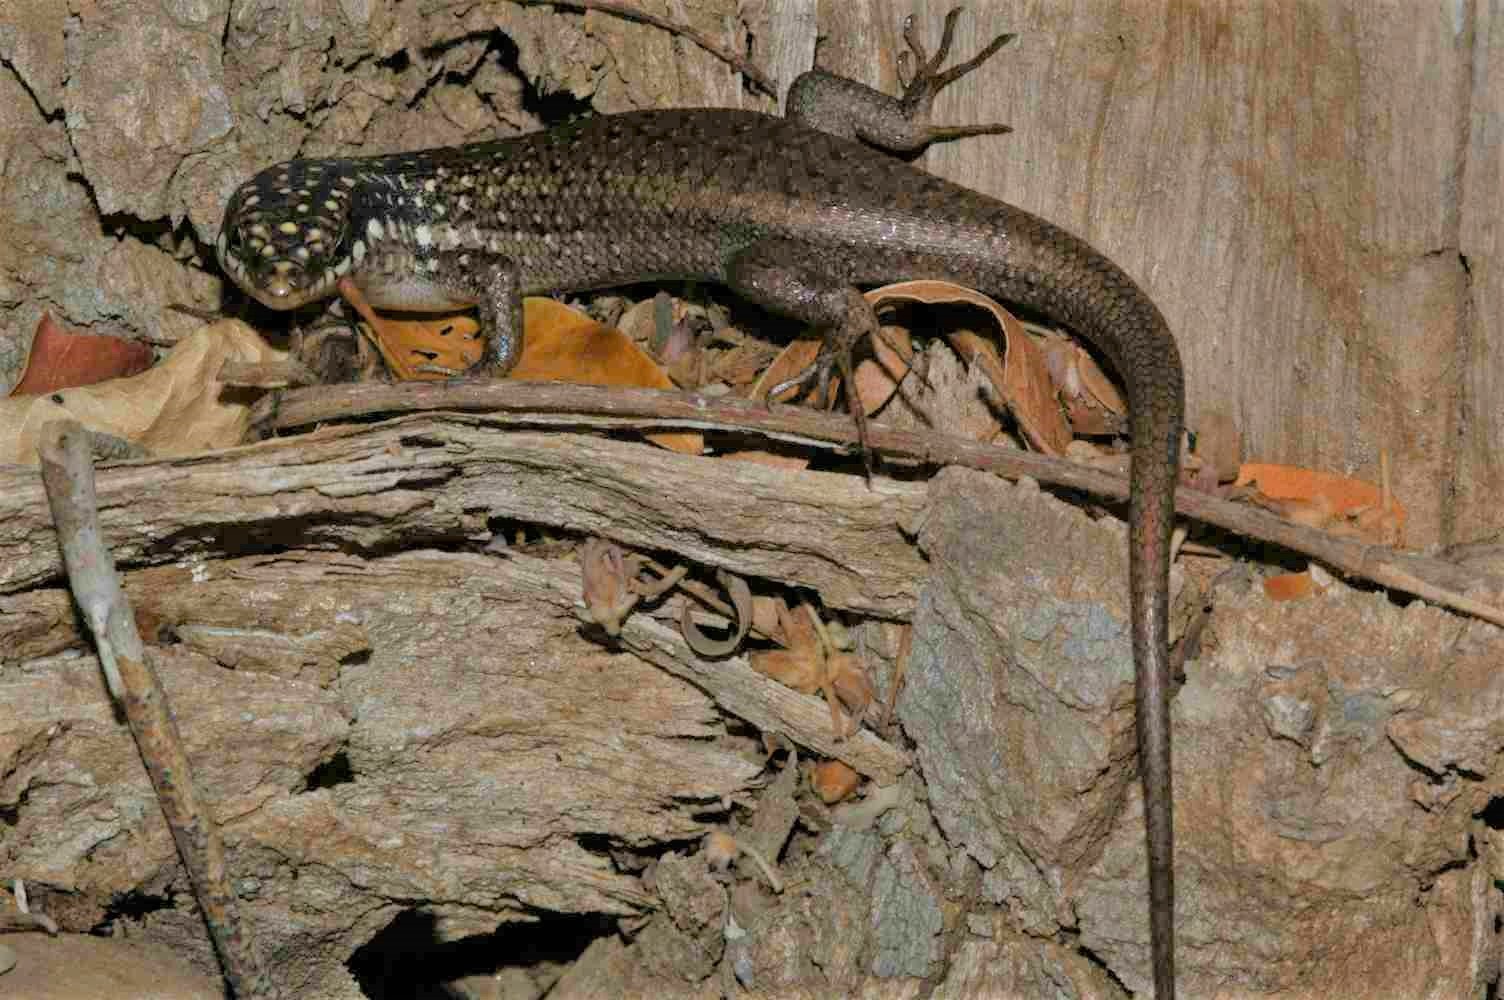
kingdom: Animalia
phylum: Chordata
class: Squamata
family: Scincidae
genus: Trachylepis
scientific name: Trachylepis aureopunctata
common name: Gold-spotted mabuya
